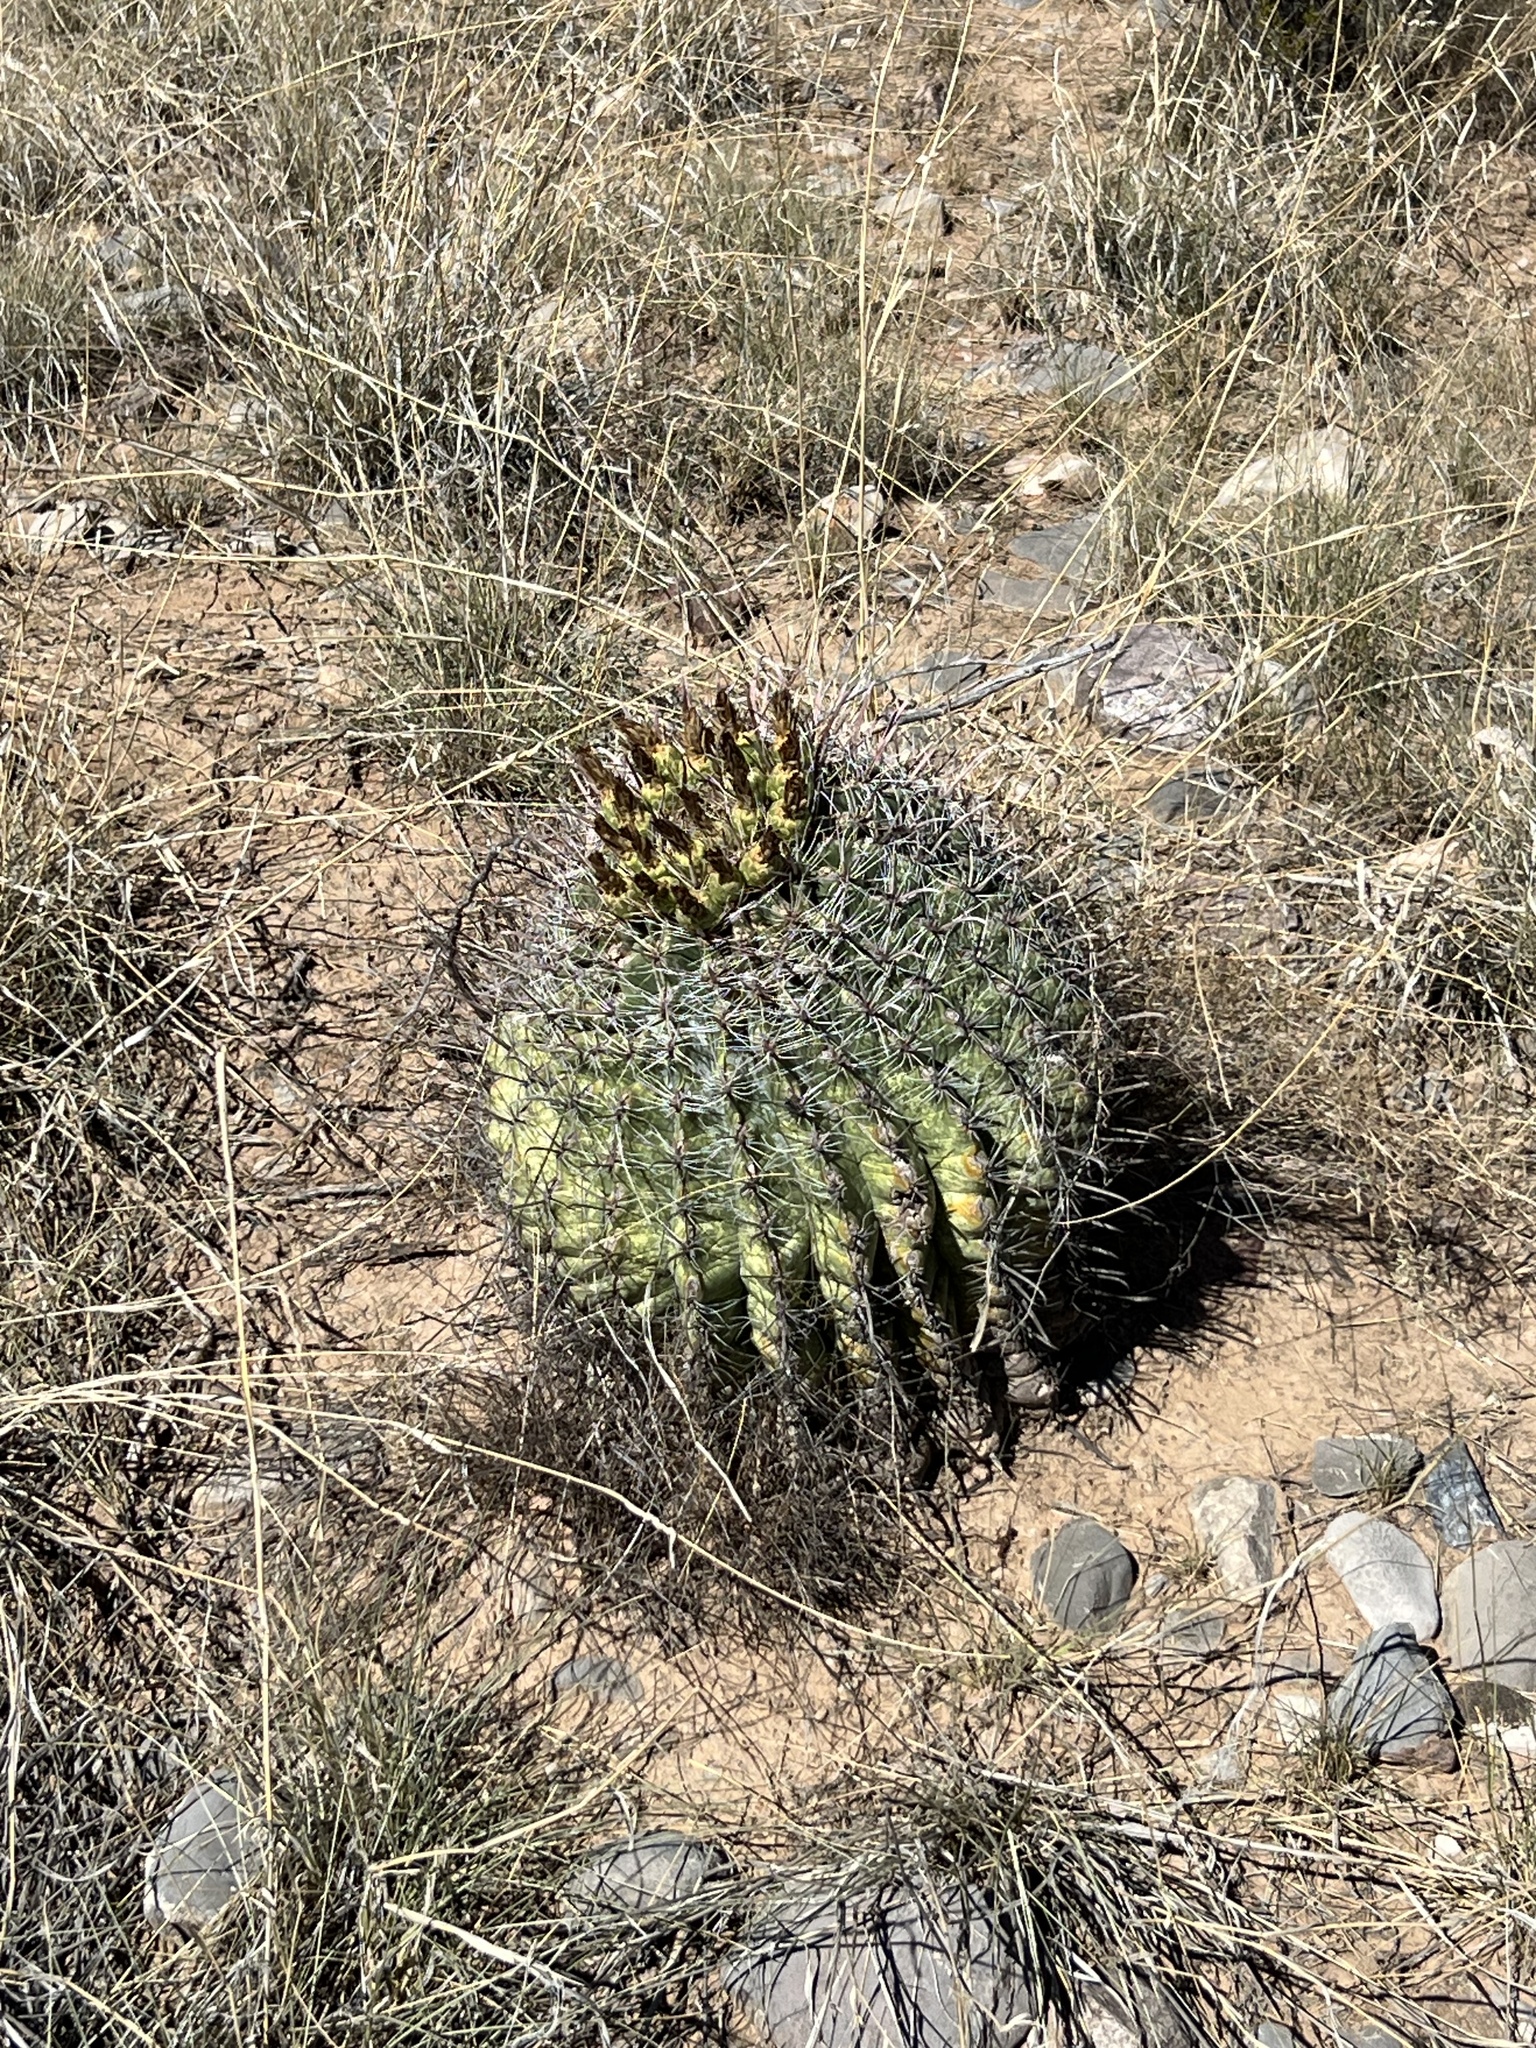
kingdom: Plantae
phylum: Tracheophyta
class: Magnoliopsida
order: Caryophyllales
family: Cactaceae
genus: Ferocactus
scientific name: Ferocactus wislizeni
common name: Candy barrel cactus
